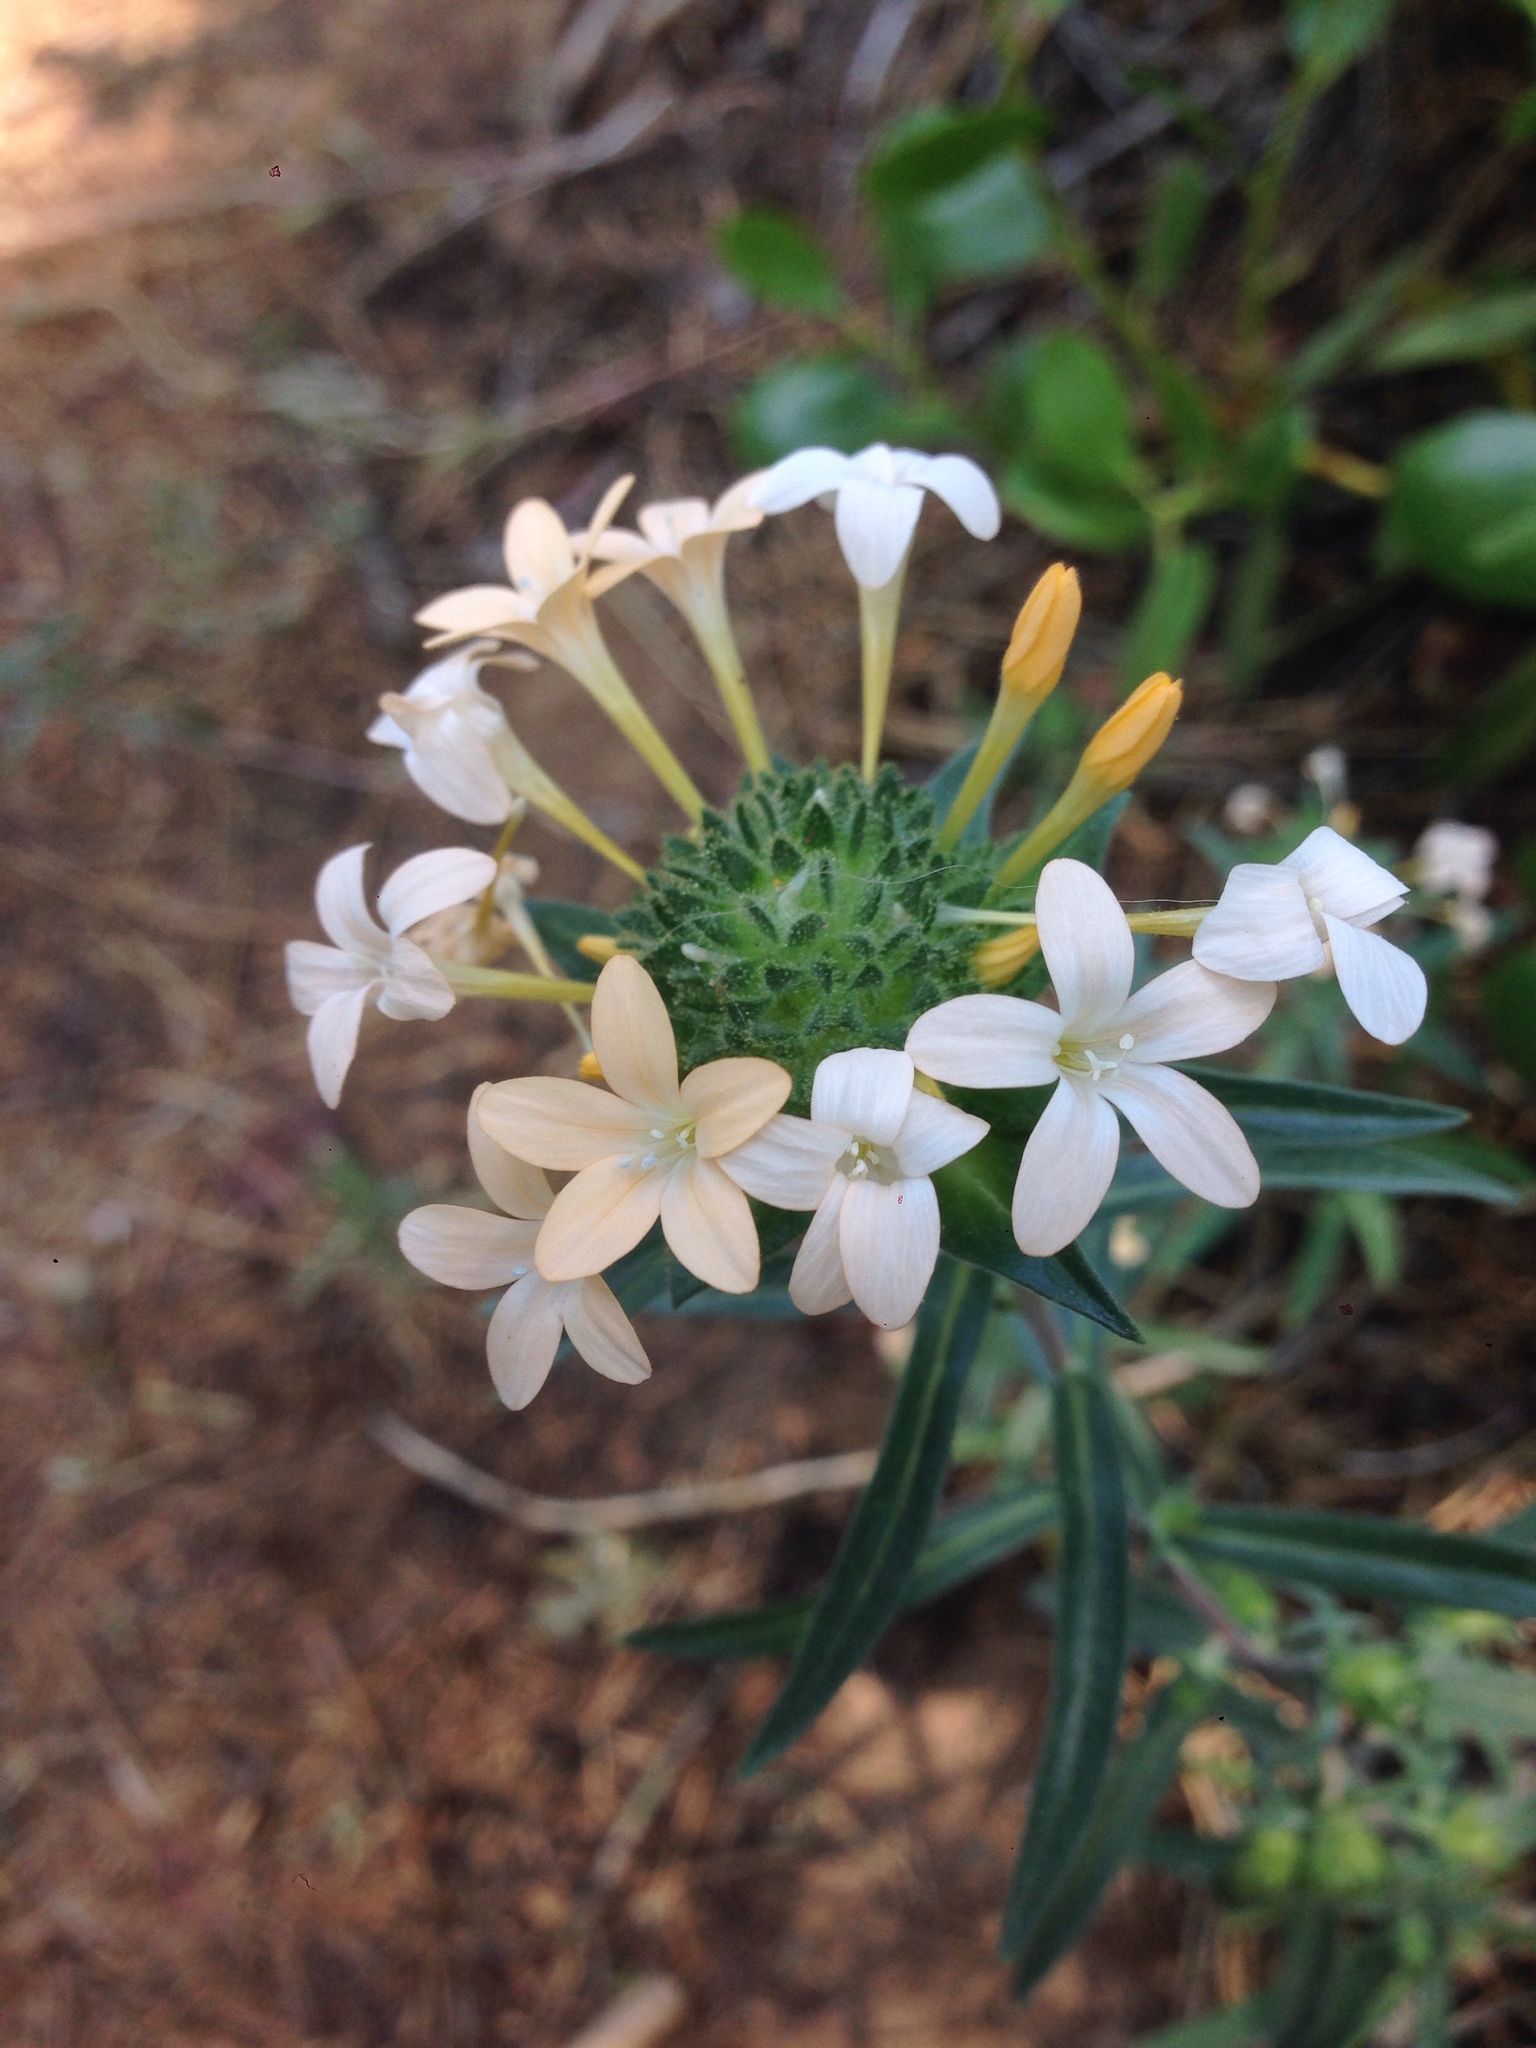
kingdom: Plantae
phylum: Tracheophyta
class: Magnoliopsida
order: Ericales
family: Polemoniaceae
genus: Collomia
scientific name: Collomia grandiflora
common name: California strawflower
